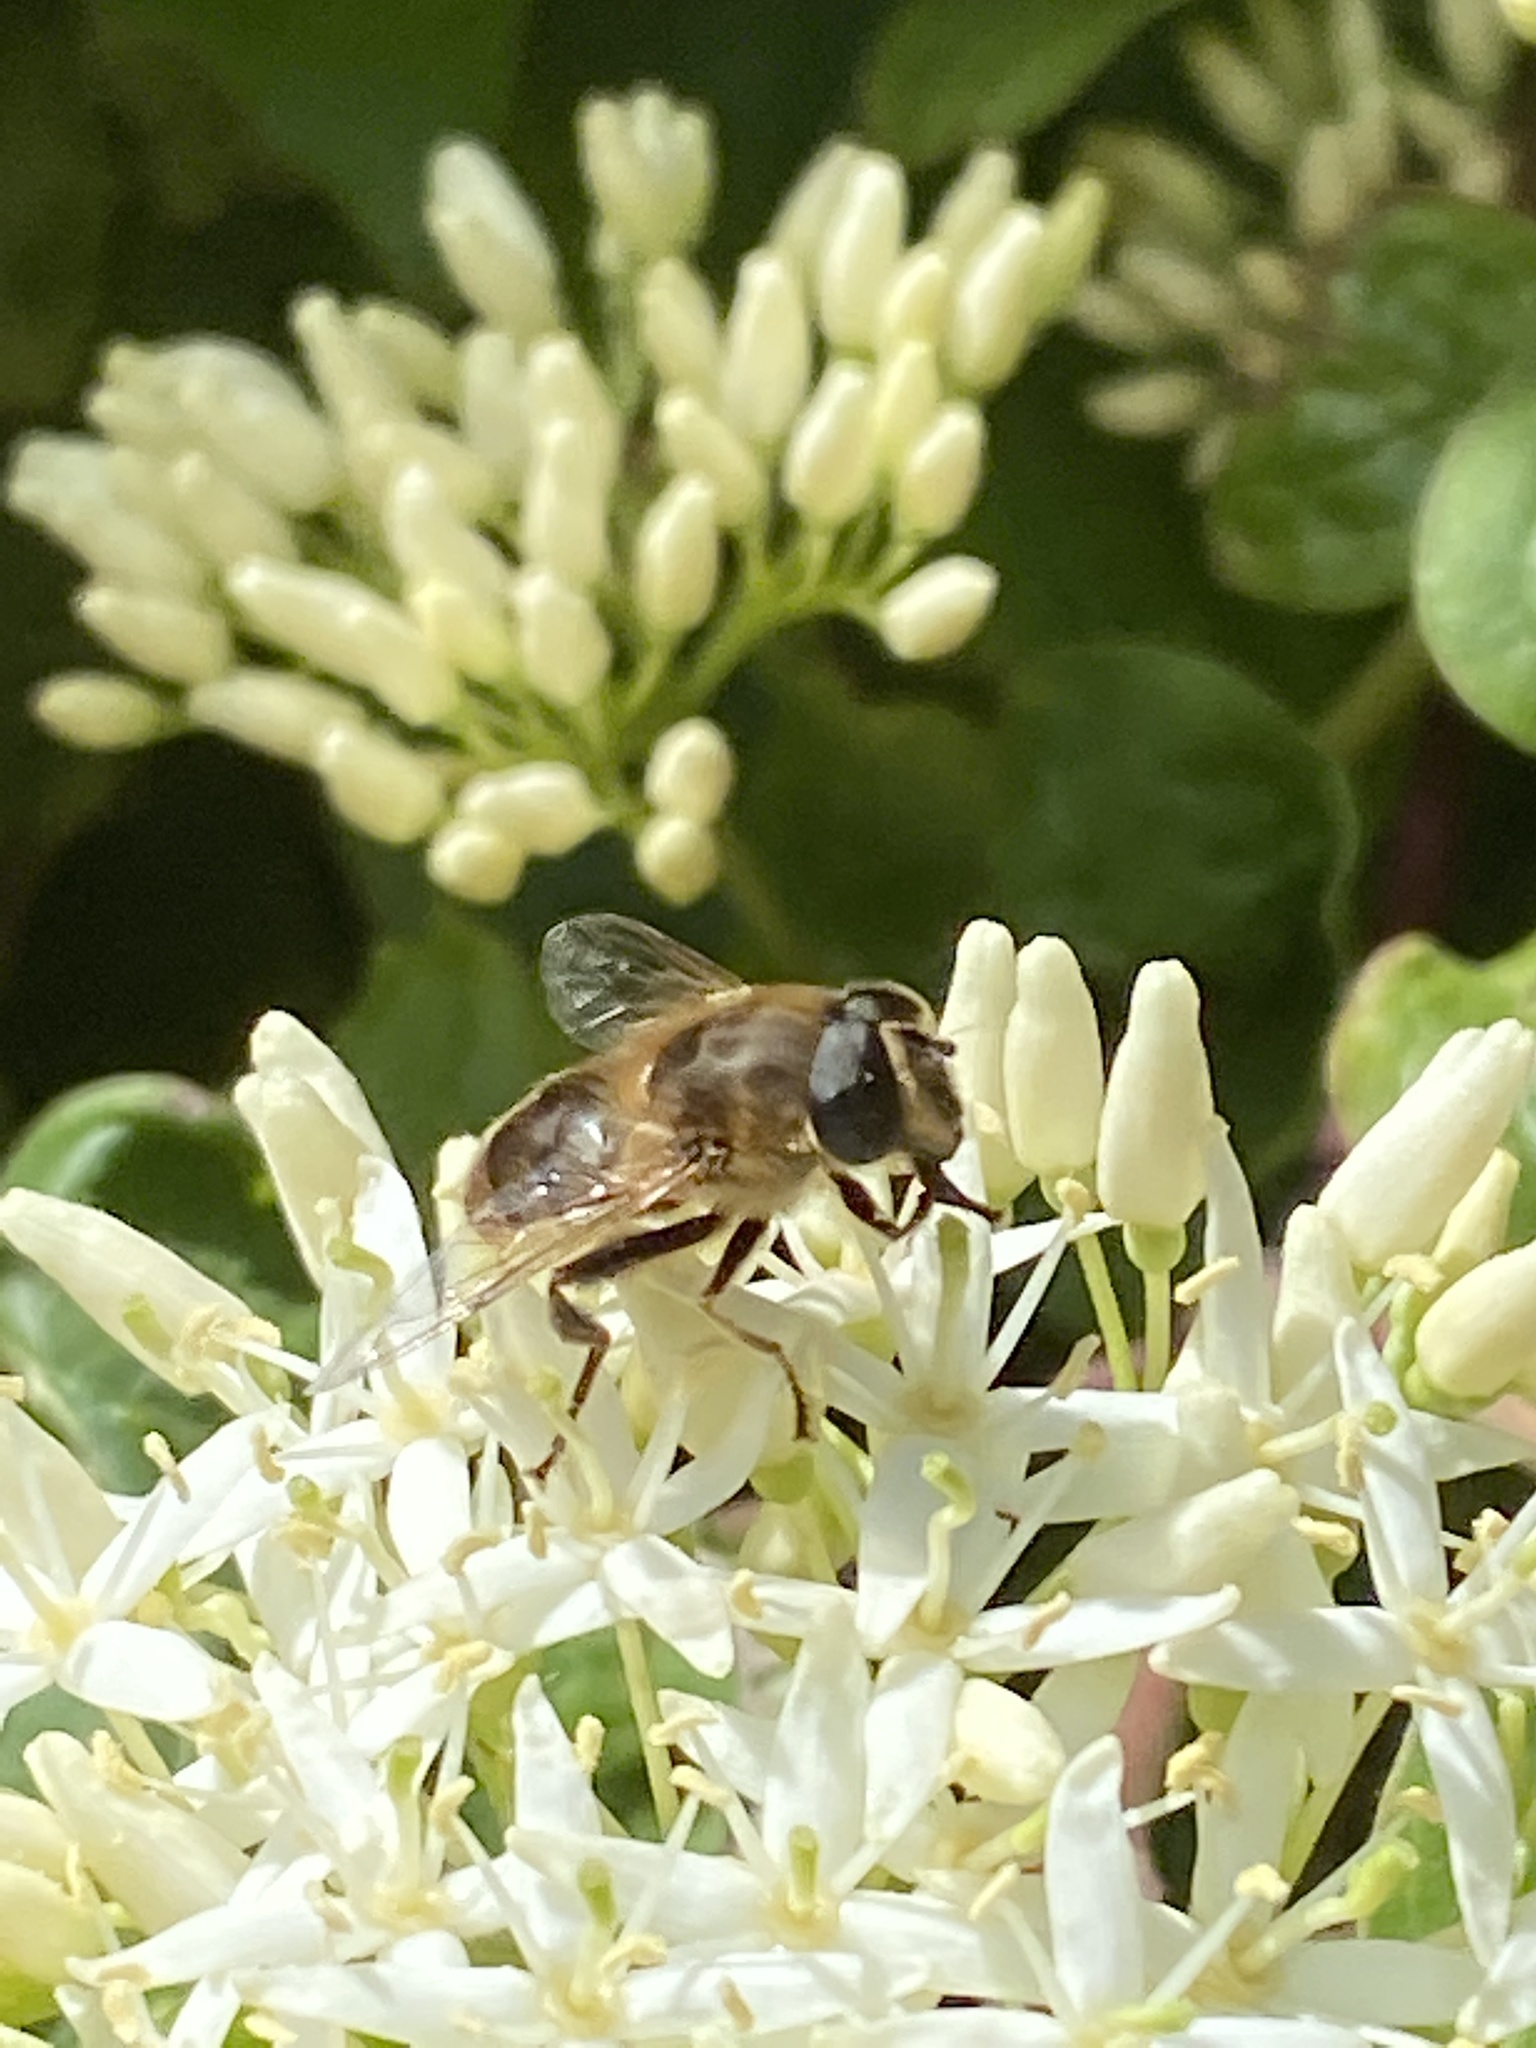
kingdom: Animalia
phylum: Arthropoda
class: Insecta
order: Diptera
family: Syrphidae
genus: Eristalis
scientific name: Eristalis tenax
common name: Drone fly
